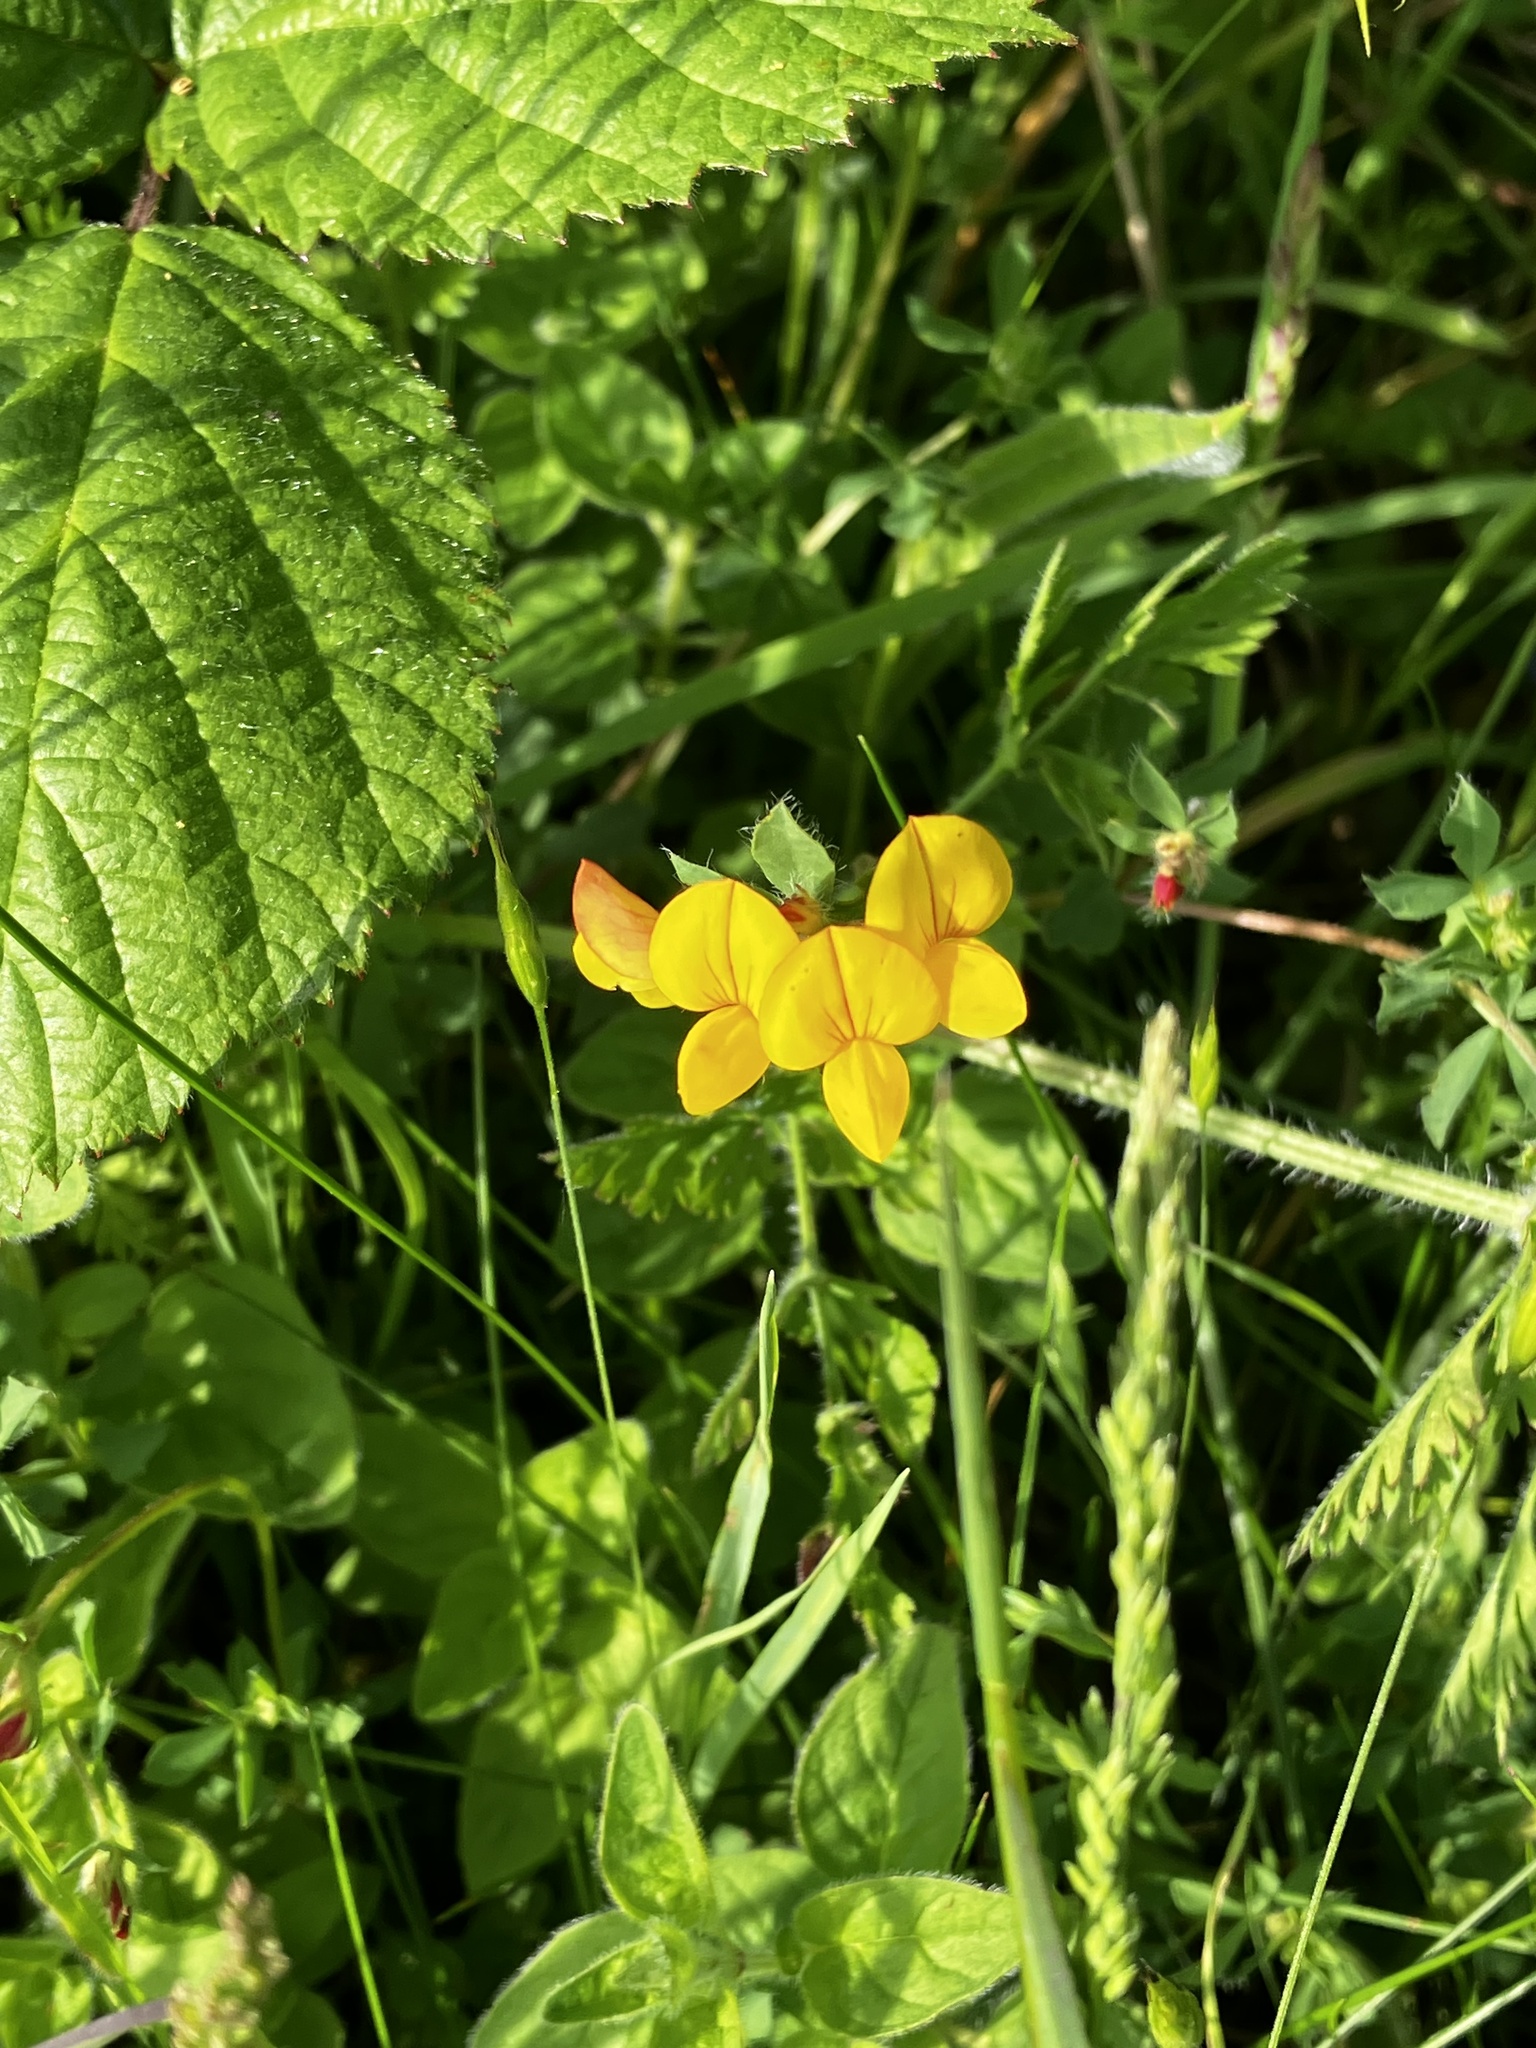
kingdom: Plantae
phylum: Tracheophyta
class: Magnoliopsida
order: Fabales
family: Fabaceae
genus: Lotus
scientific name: Lotus corniculatus
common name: Common bird's-foot-trefoil
